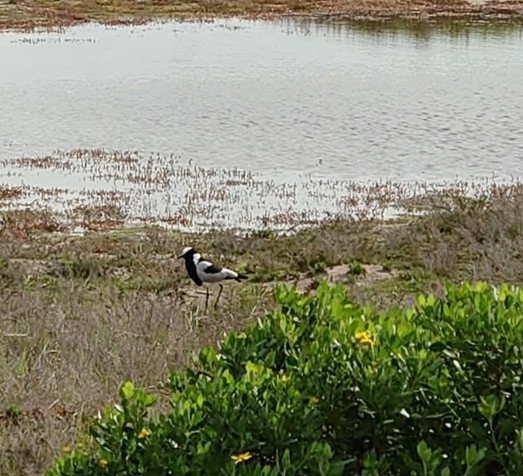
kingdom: Animalia
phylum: Chordata
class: Aves
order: Charadriiformes
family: Charadriidae
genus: Vanellus
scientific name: Vanellus armatus
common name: Blacksmith lapwing
